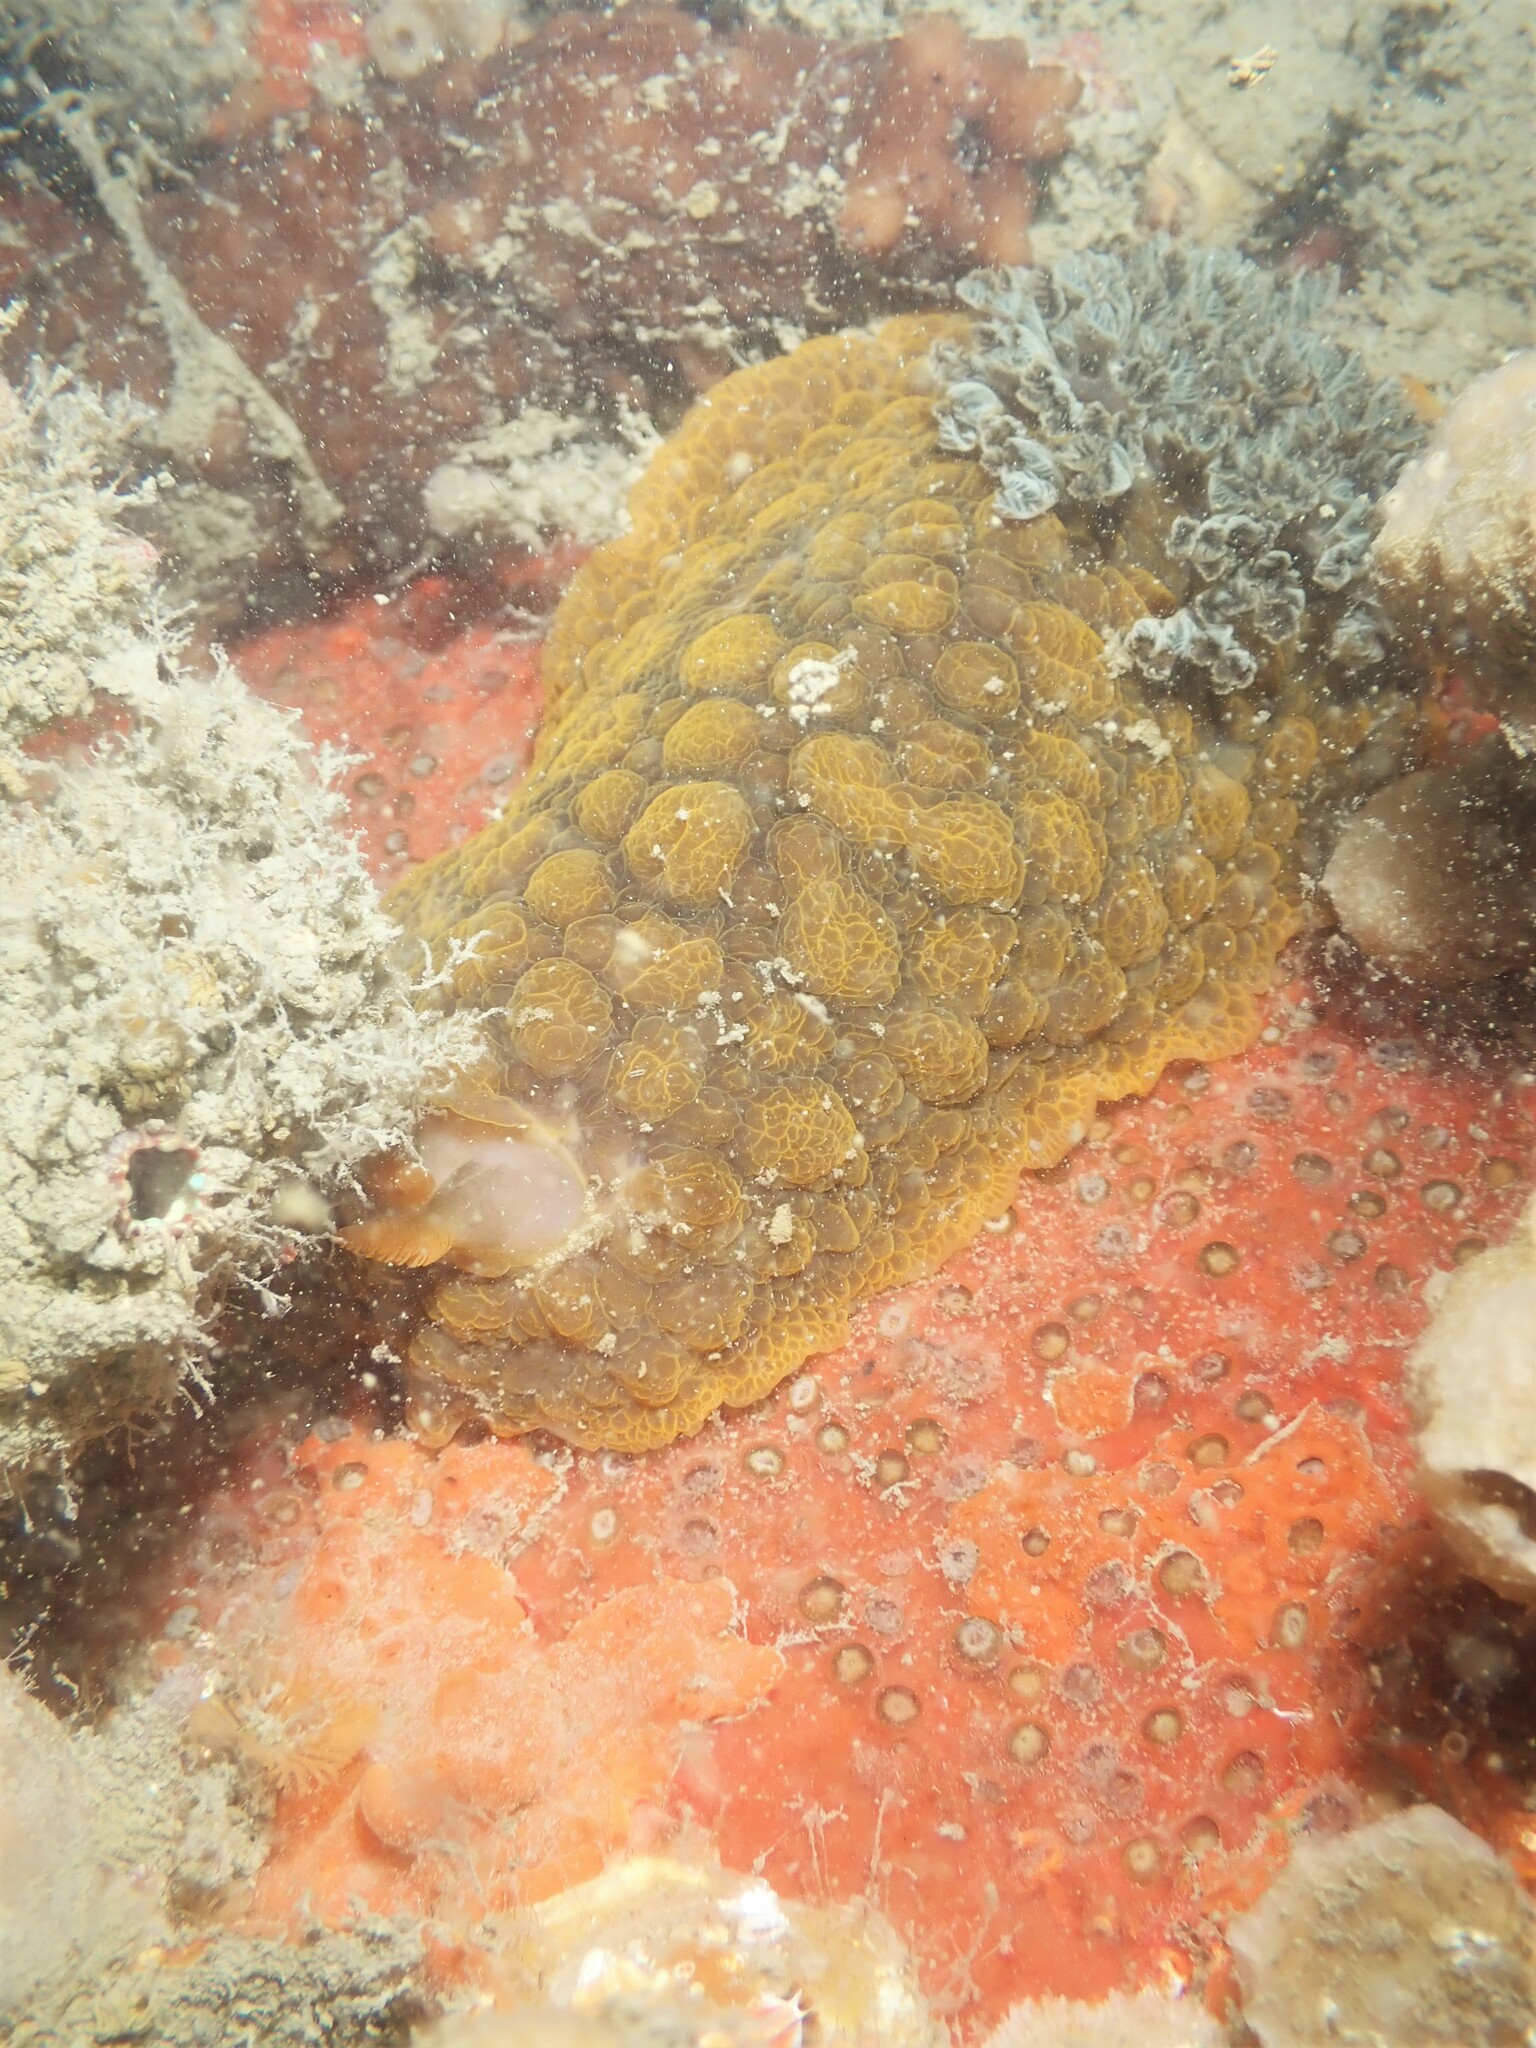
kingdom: Animalia
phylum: Mollusca
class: Gastropoda
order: Nudibranchia
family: Dorididae
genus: Doris
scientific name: Doris wellingtonensis
